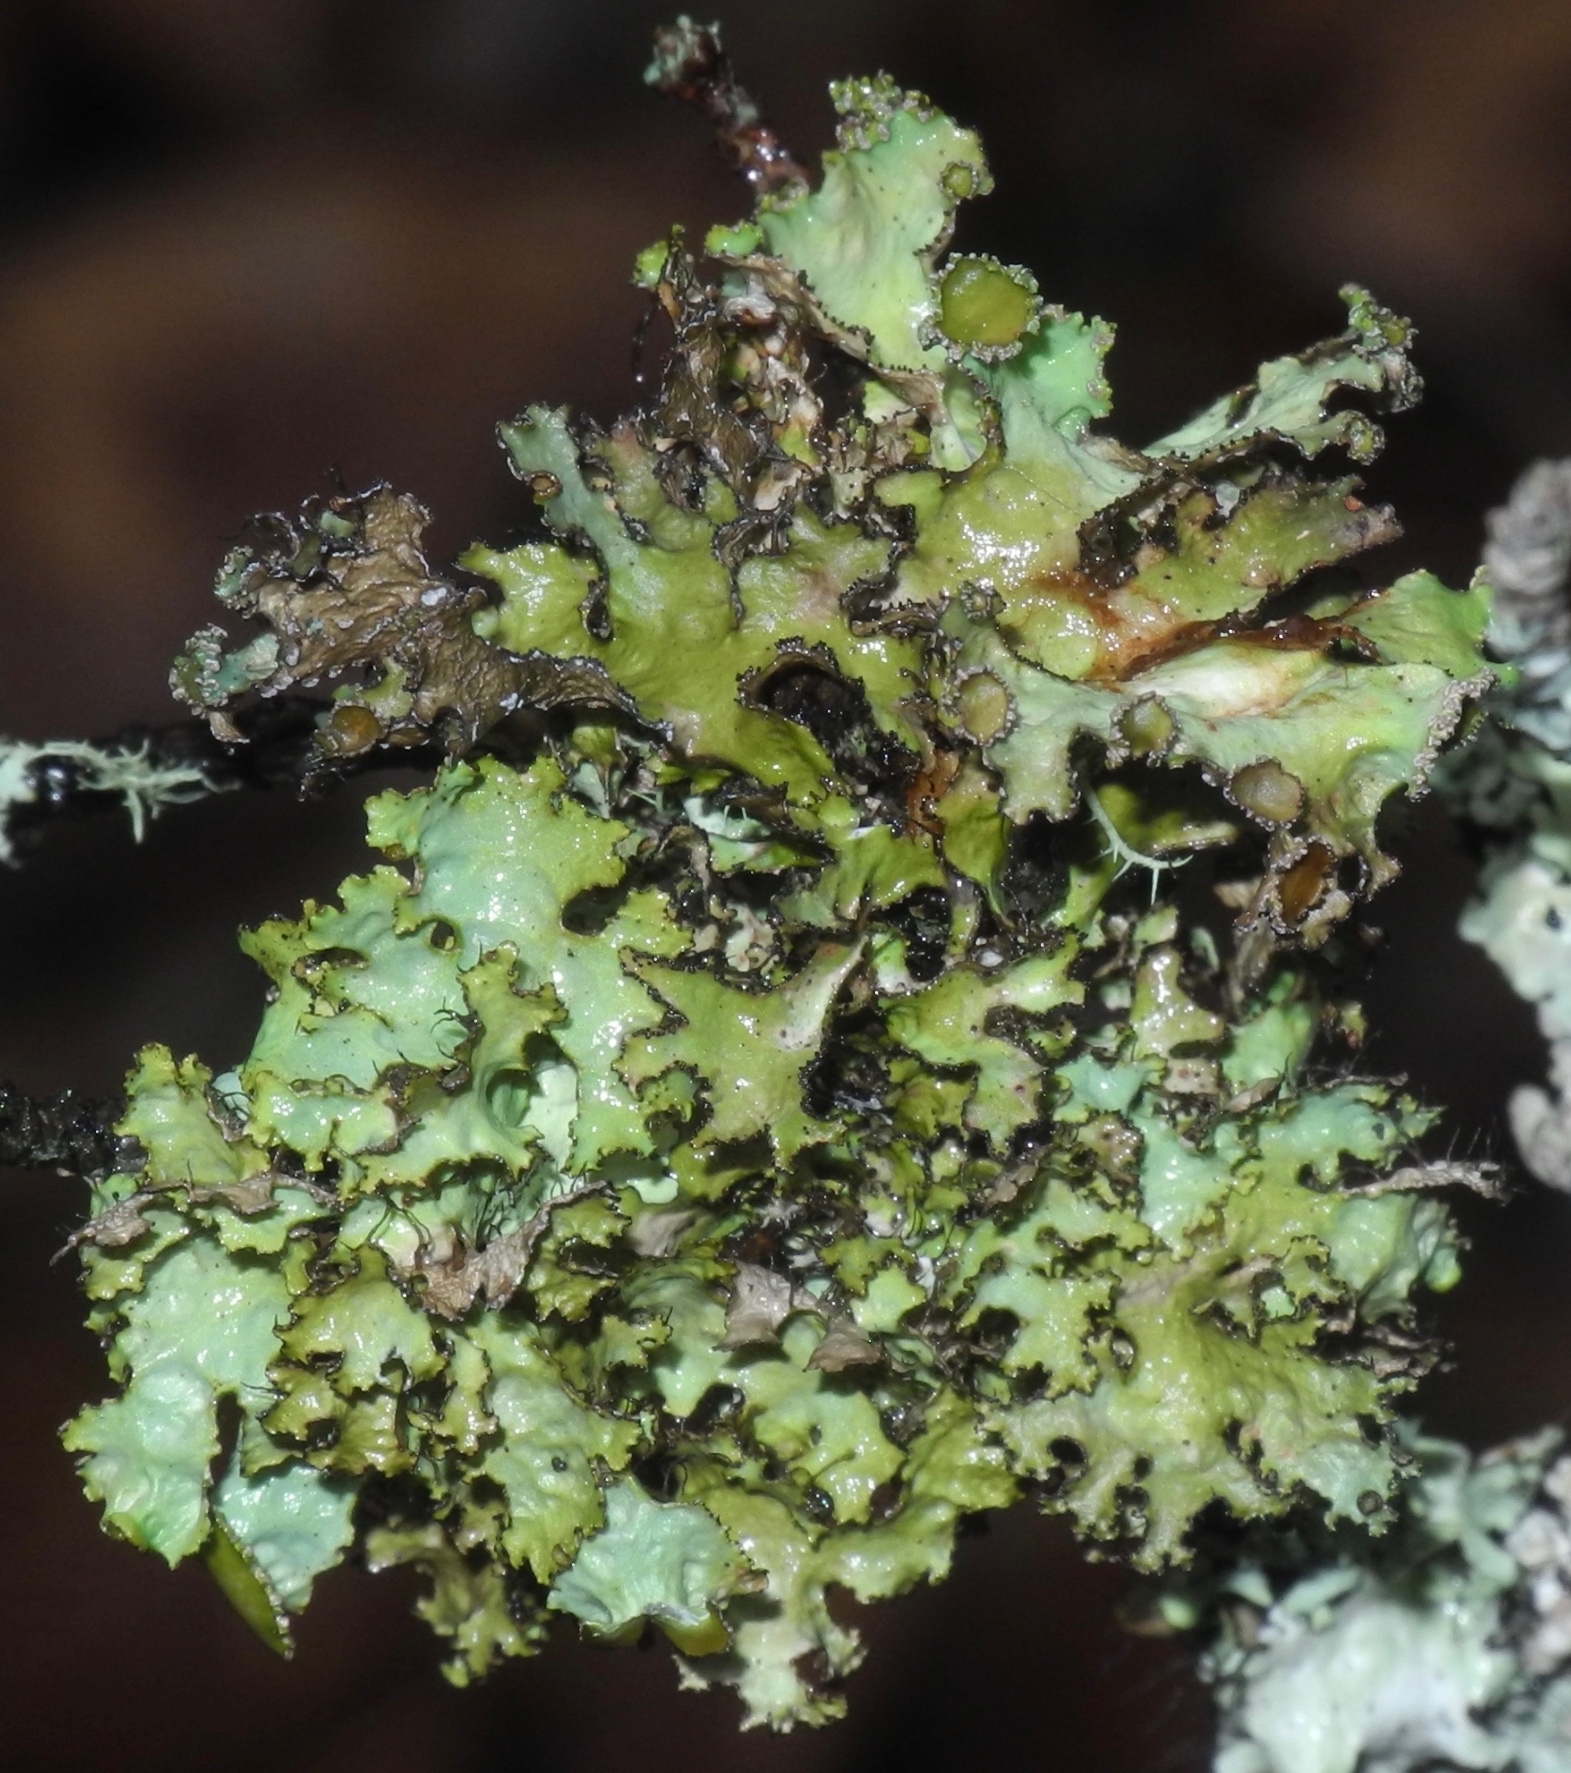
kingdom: Fungi
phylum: Ascomycota
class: Lecanoromycetes
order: Lecanorales
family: Parmeliaceae
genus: Nephromopsis
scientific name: Nephromopsis orbata
